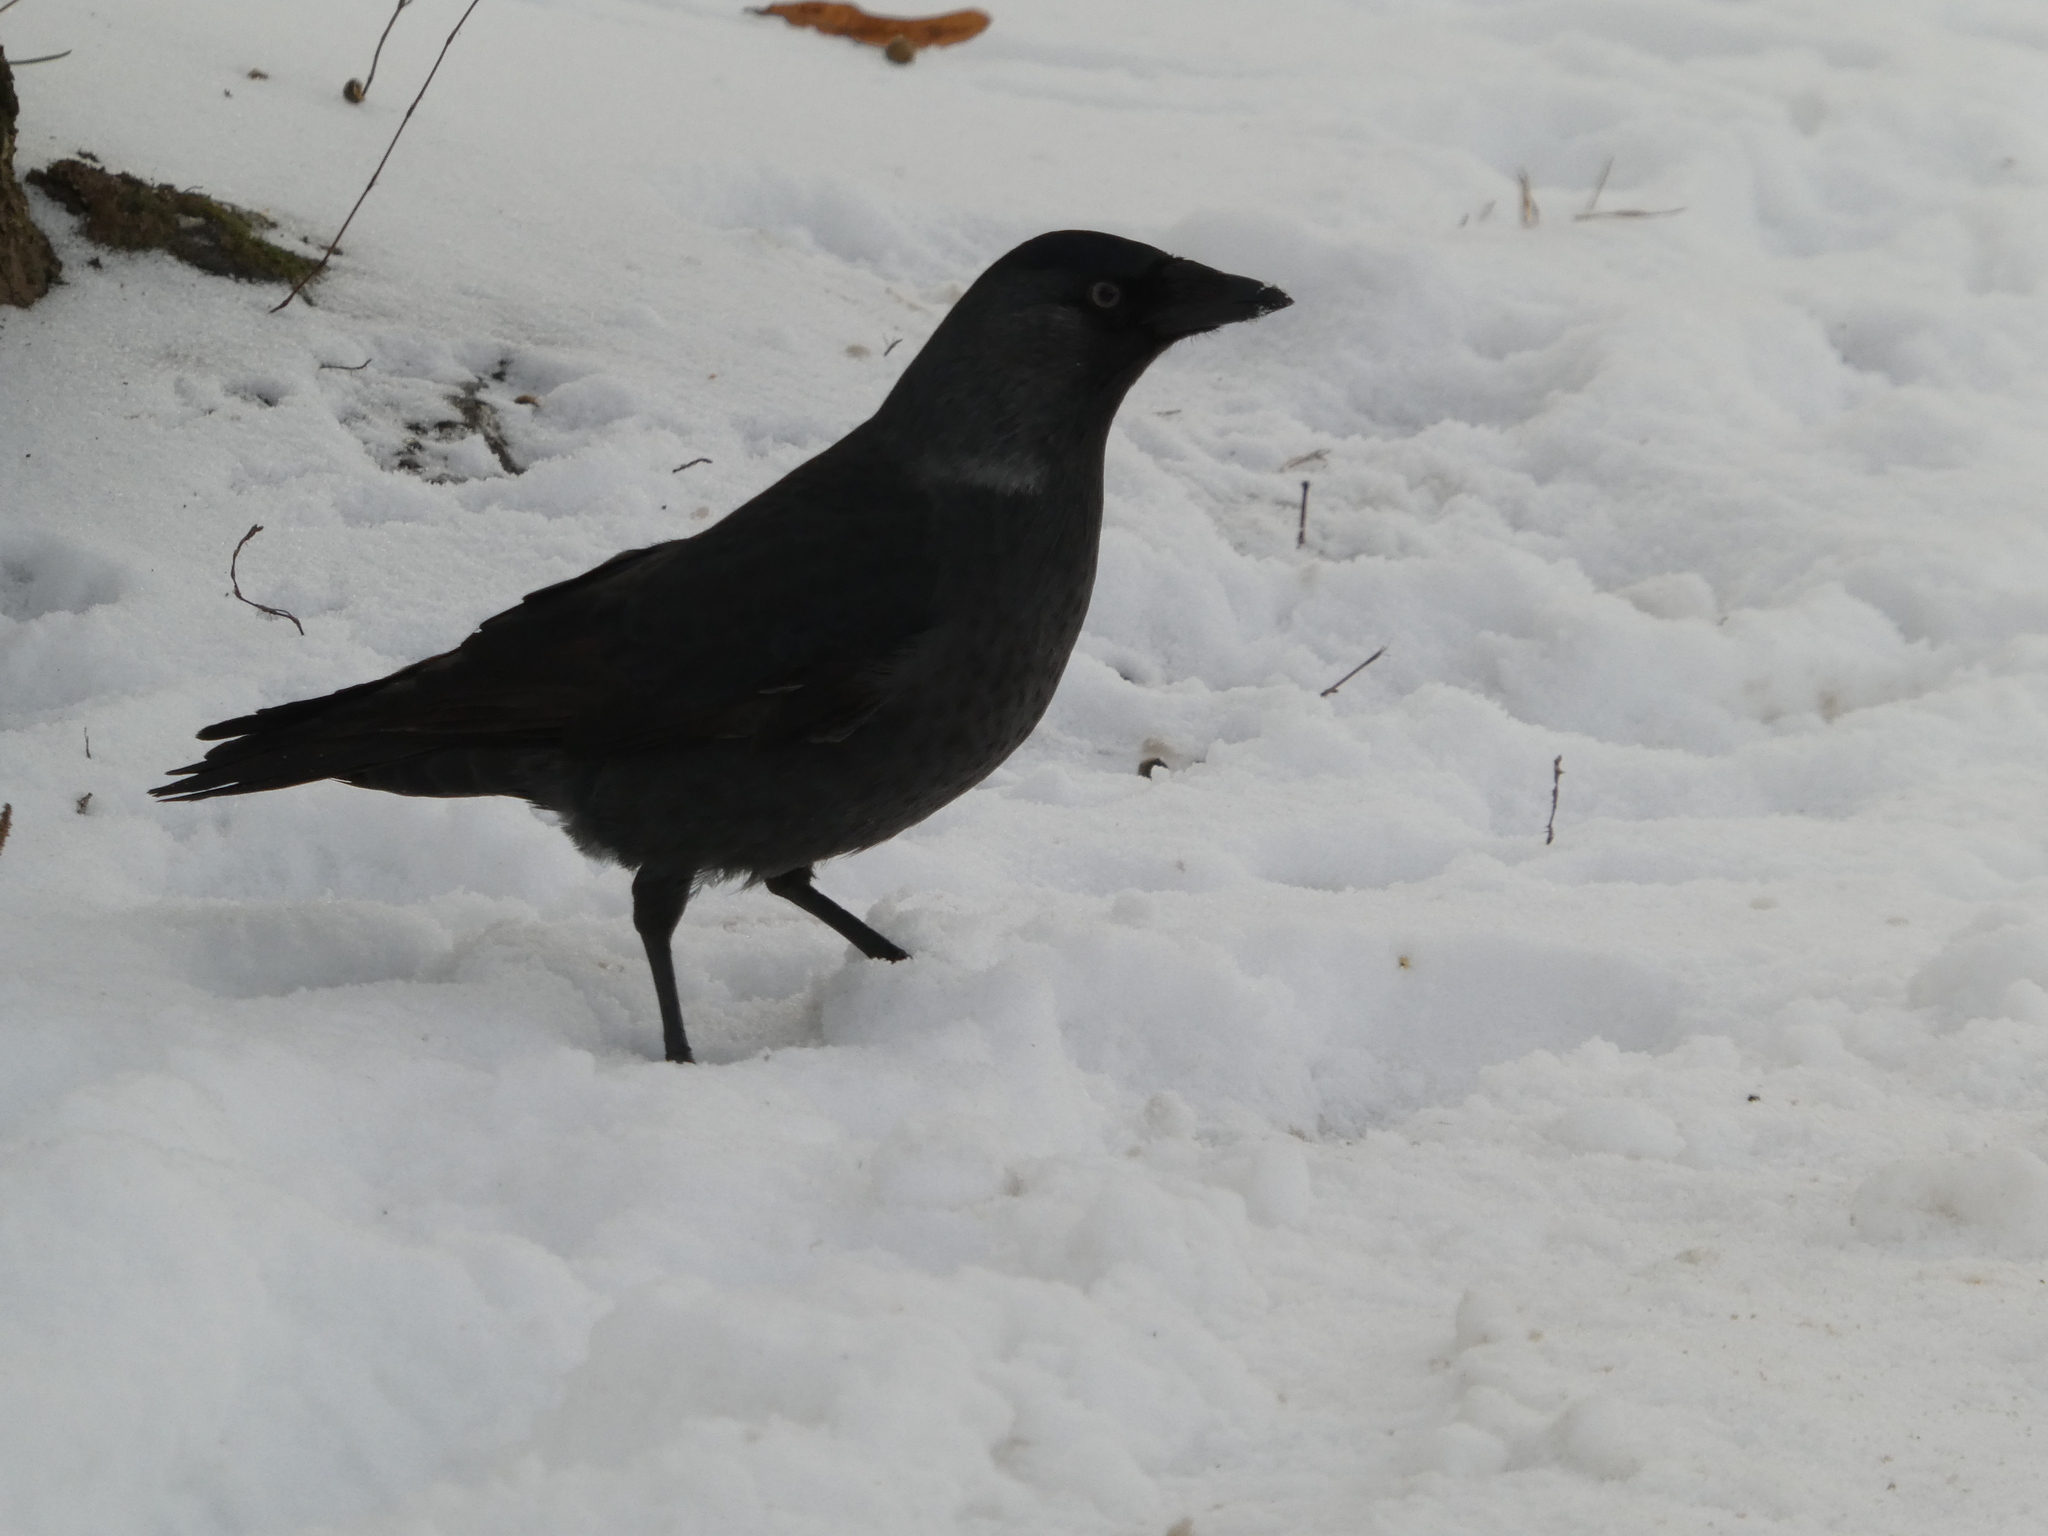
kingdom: Animalia
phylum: Chordata
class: Aves
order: Passeriformes
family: Corvidae
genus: Coloeus
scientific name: Coloeus monedula
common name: Western jackdaw
